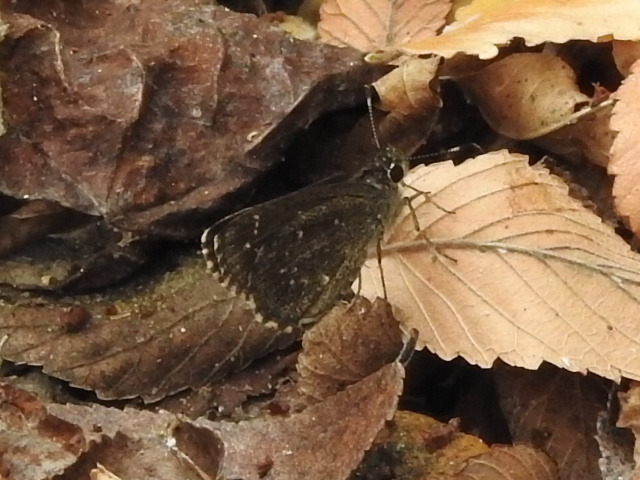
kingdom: Animalia
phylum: Arthropoda
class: Insecta
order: Lepidoptera
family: Hesperiidae
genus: Mastor
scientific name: Mastor celia
